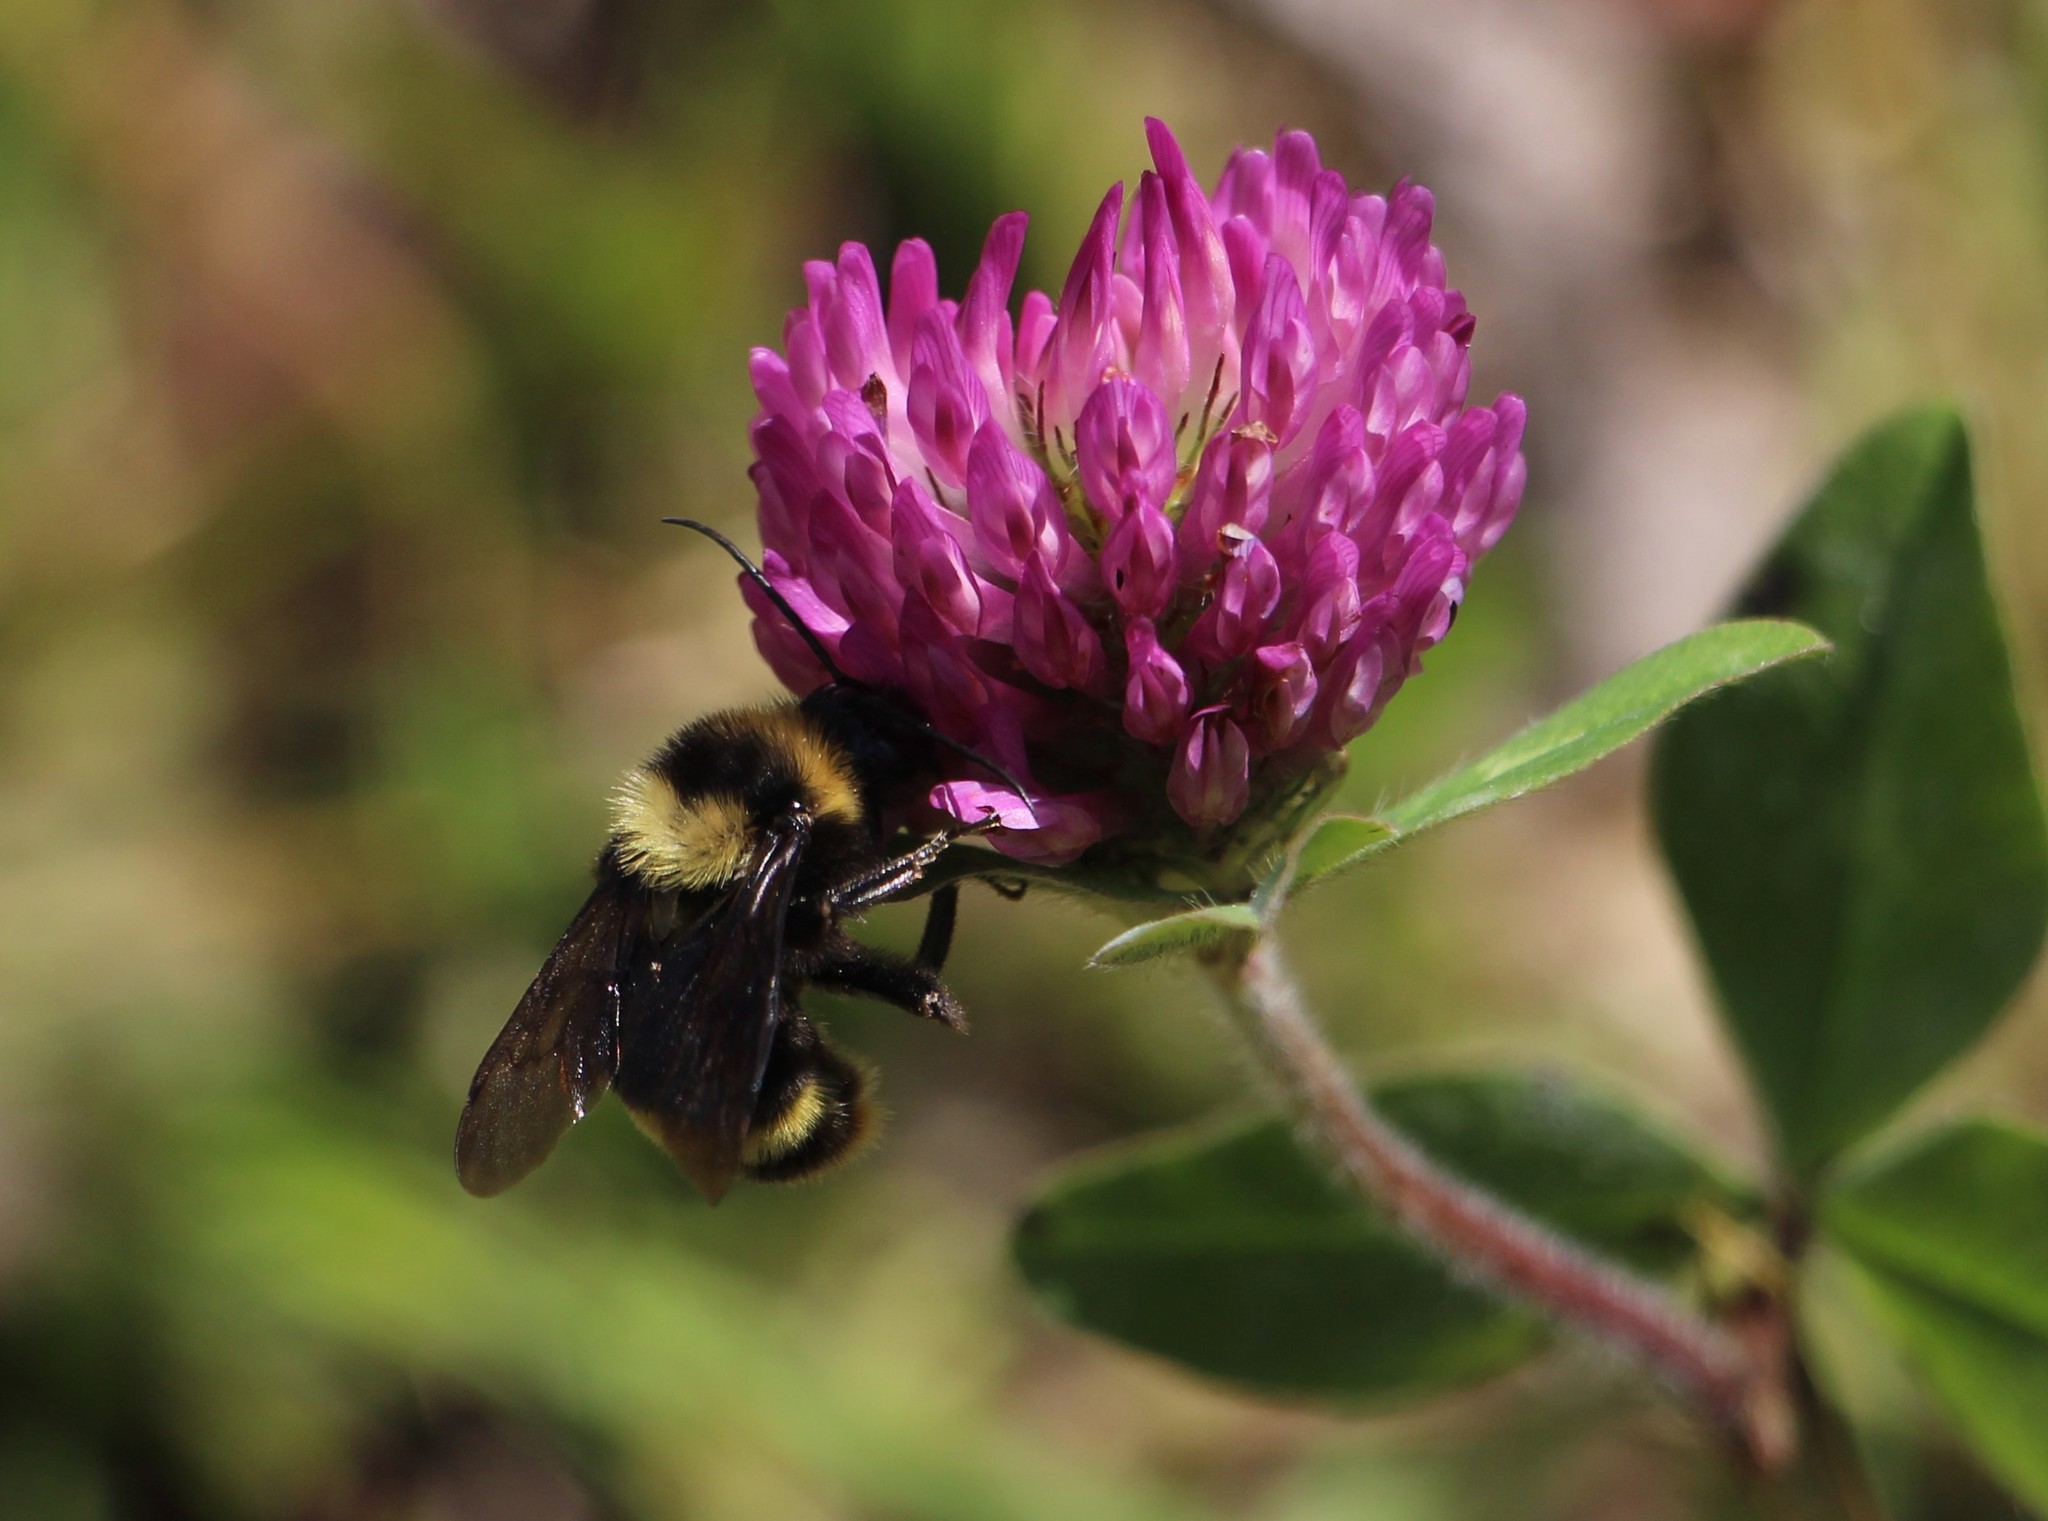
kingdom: Plantae
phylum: Tracheophyta
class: Magnoliopsida
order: Fabales
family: Fabaceae
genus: Trifolium
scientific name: Trifolium pratense
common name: Red clover
